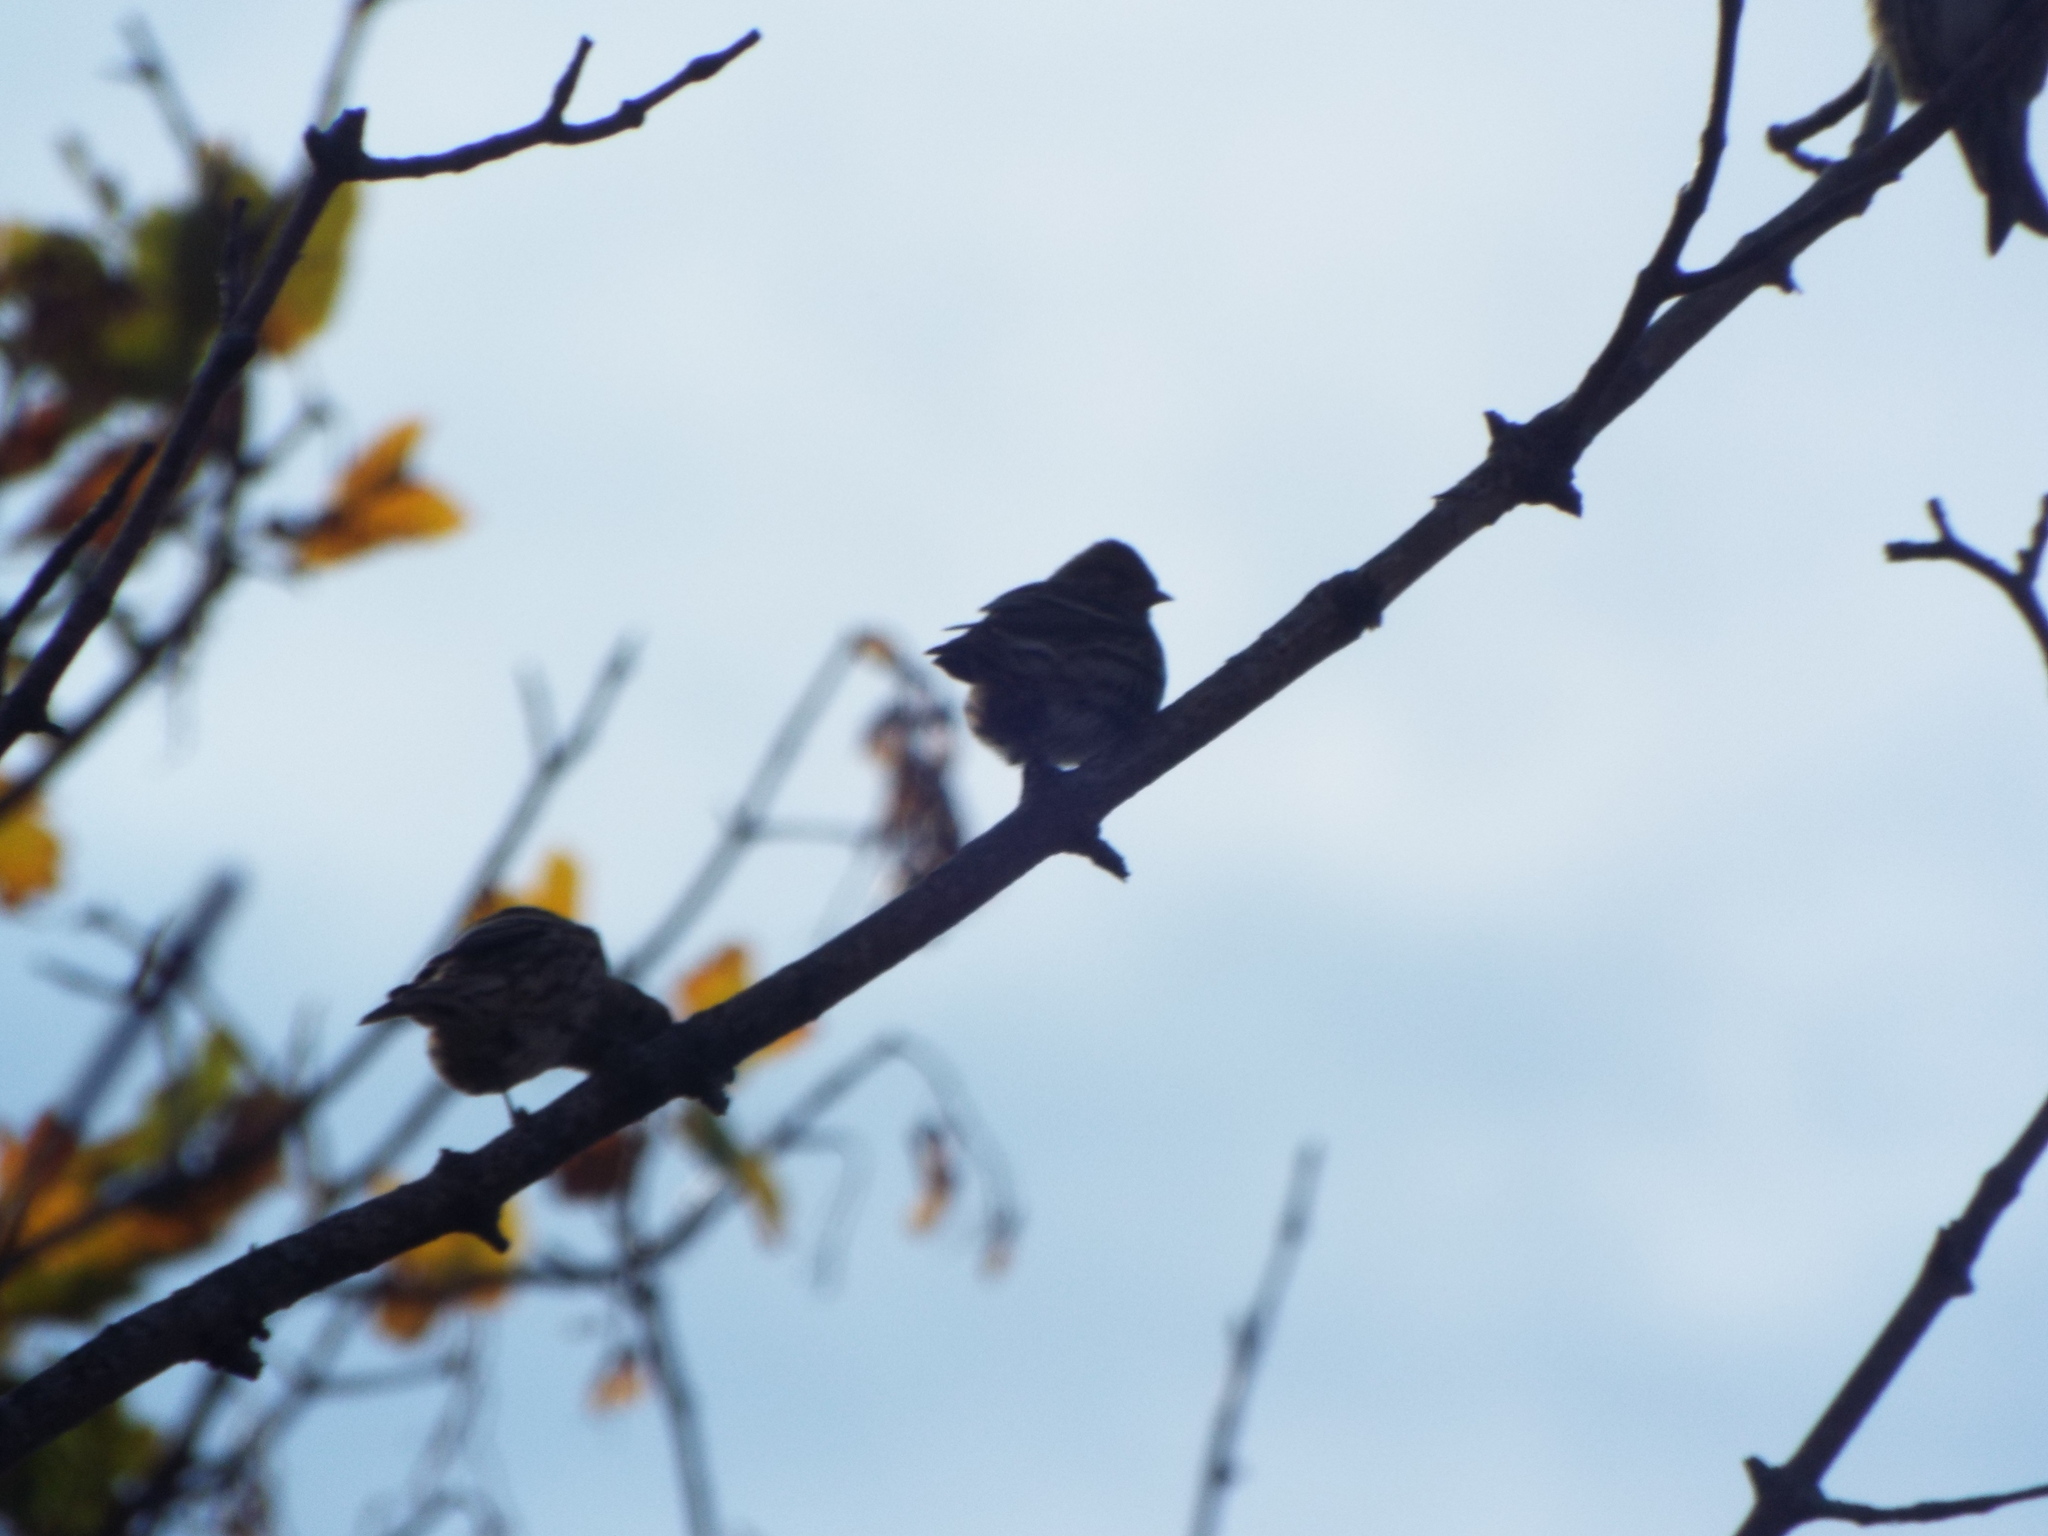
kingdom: Animalia
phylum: Chordata
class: Aves
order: Passeriformes
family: Fringillidae
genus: Spinus
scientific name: Spinus pinus
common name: Pine siskin
